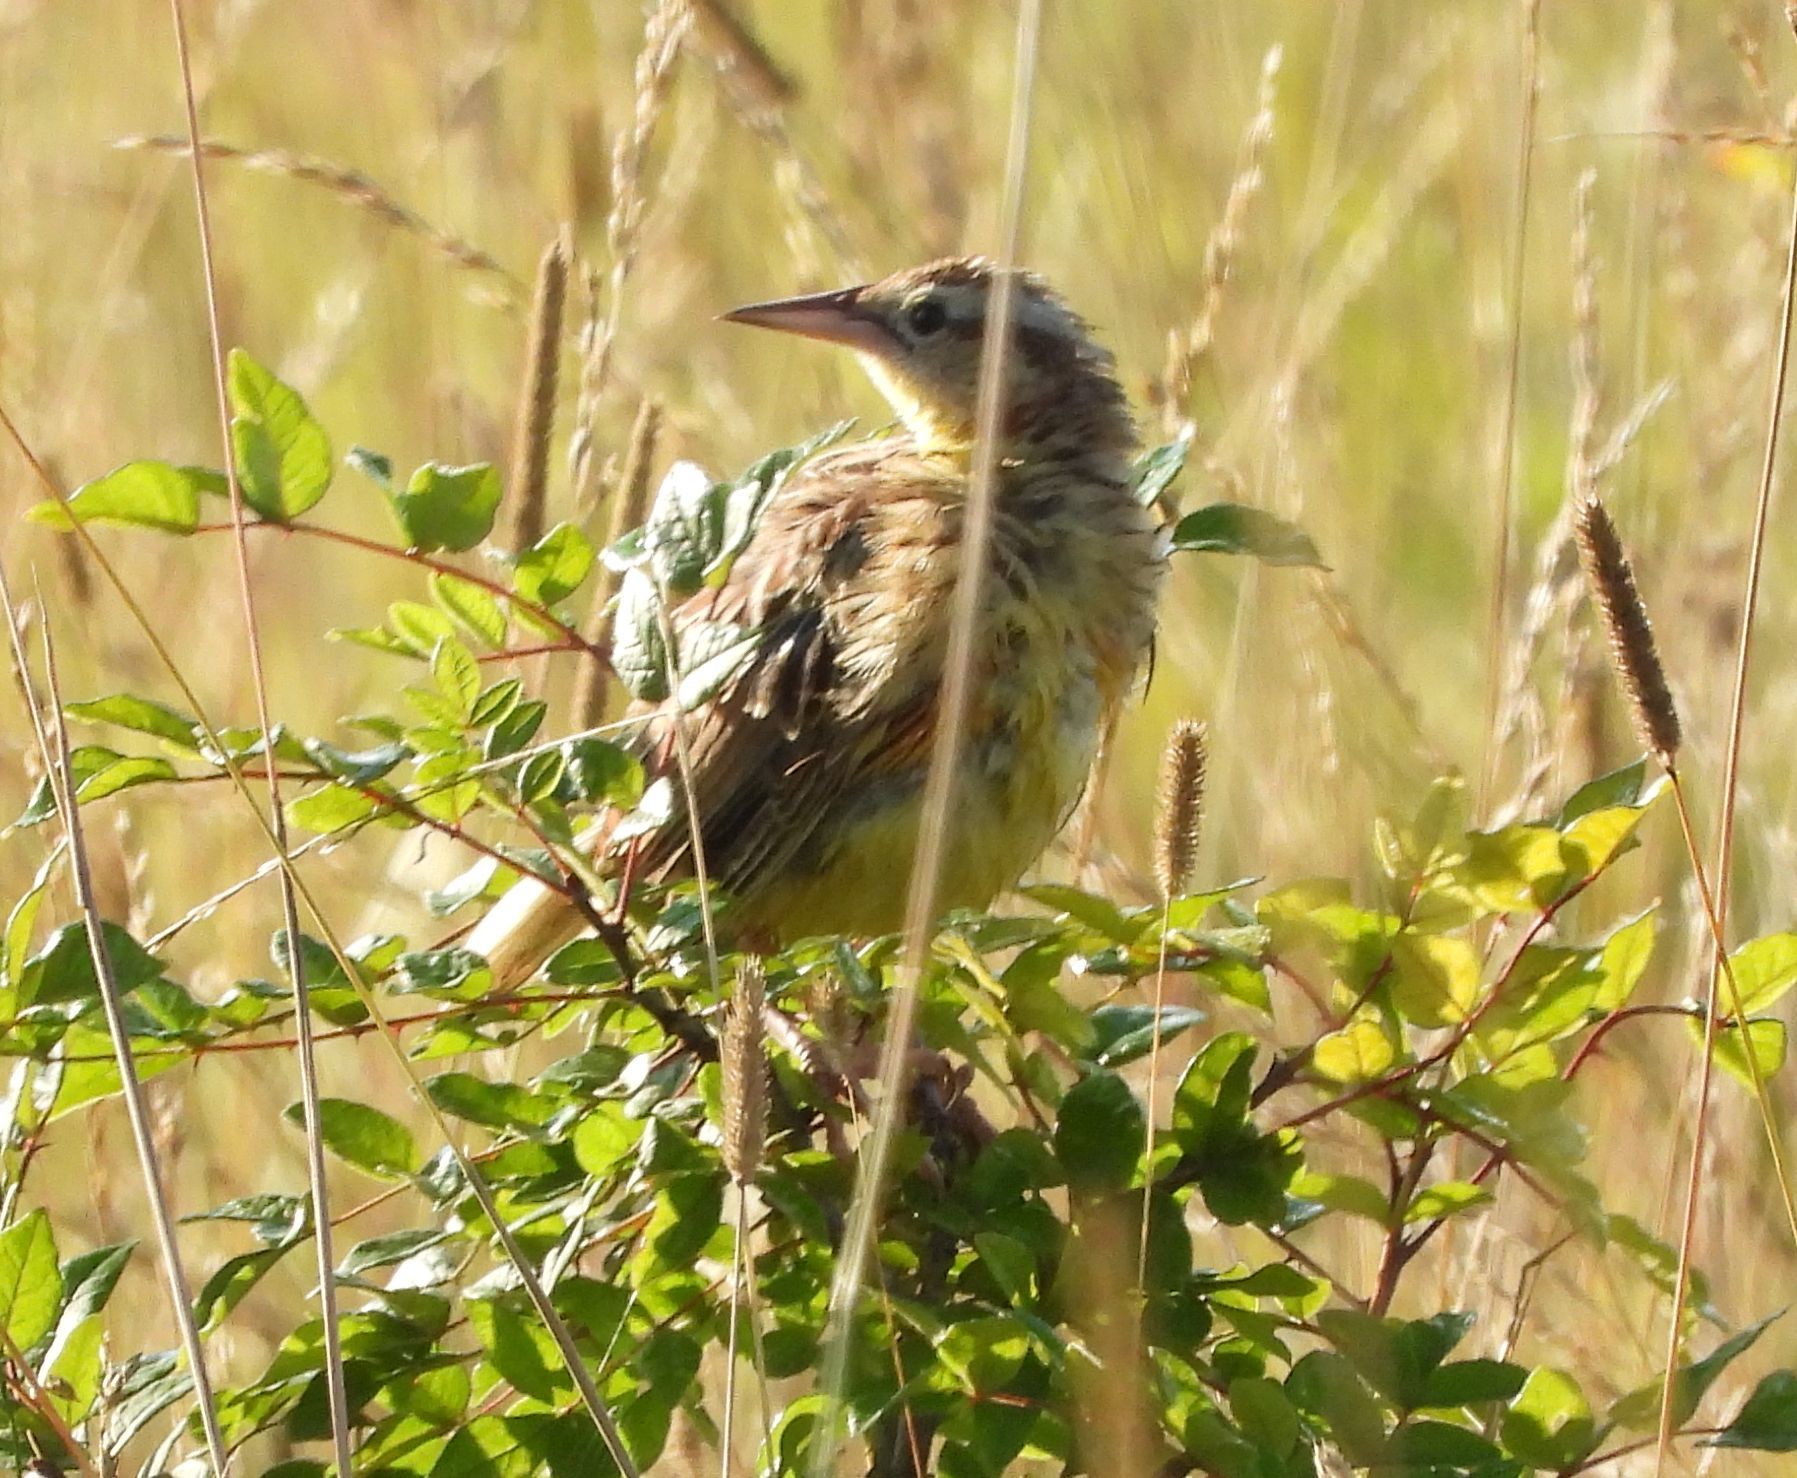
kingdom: Animalia
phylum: Chordata
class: Aves
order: Passeriformes
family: Icteridae
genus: Sturnella
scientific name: Sturnella magna
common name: Eastern meadowlark
